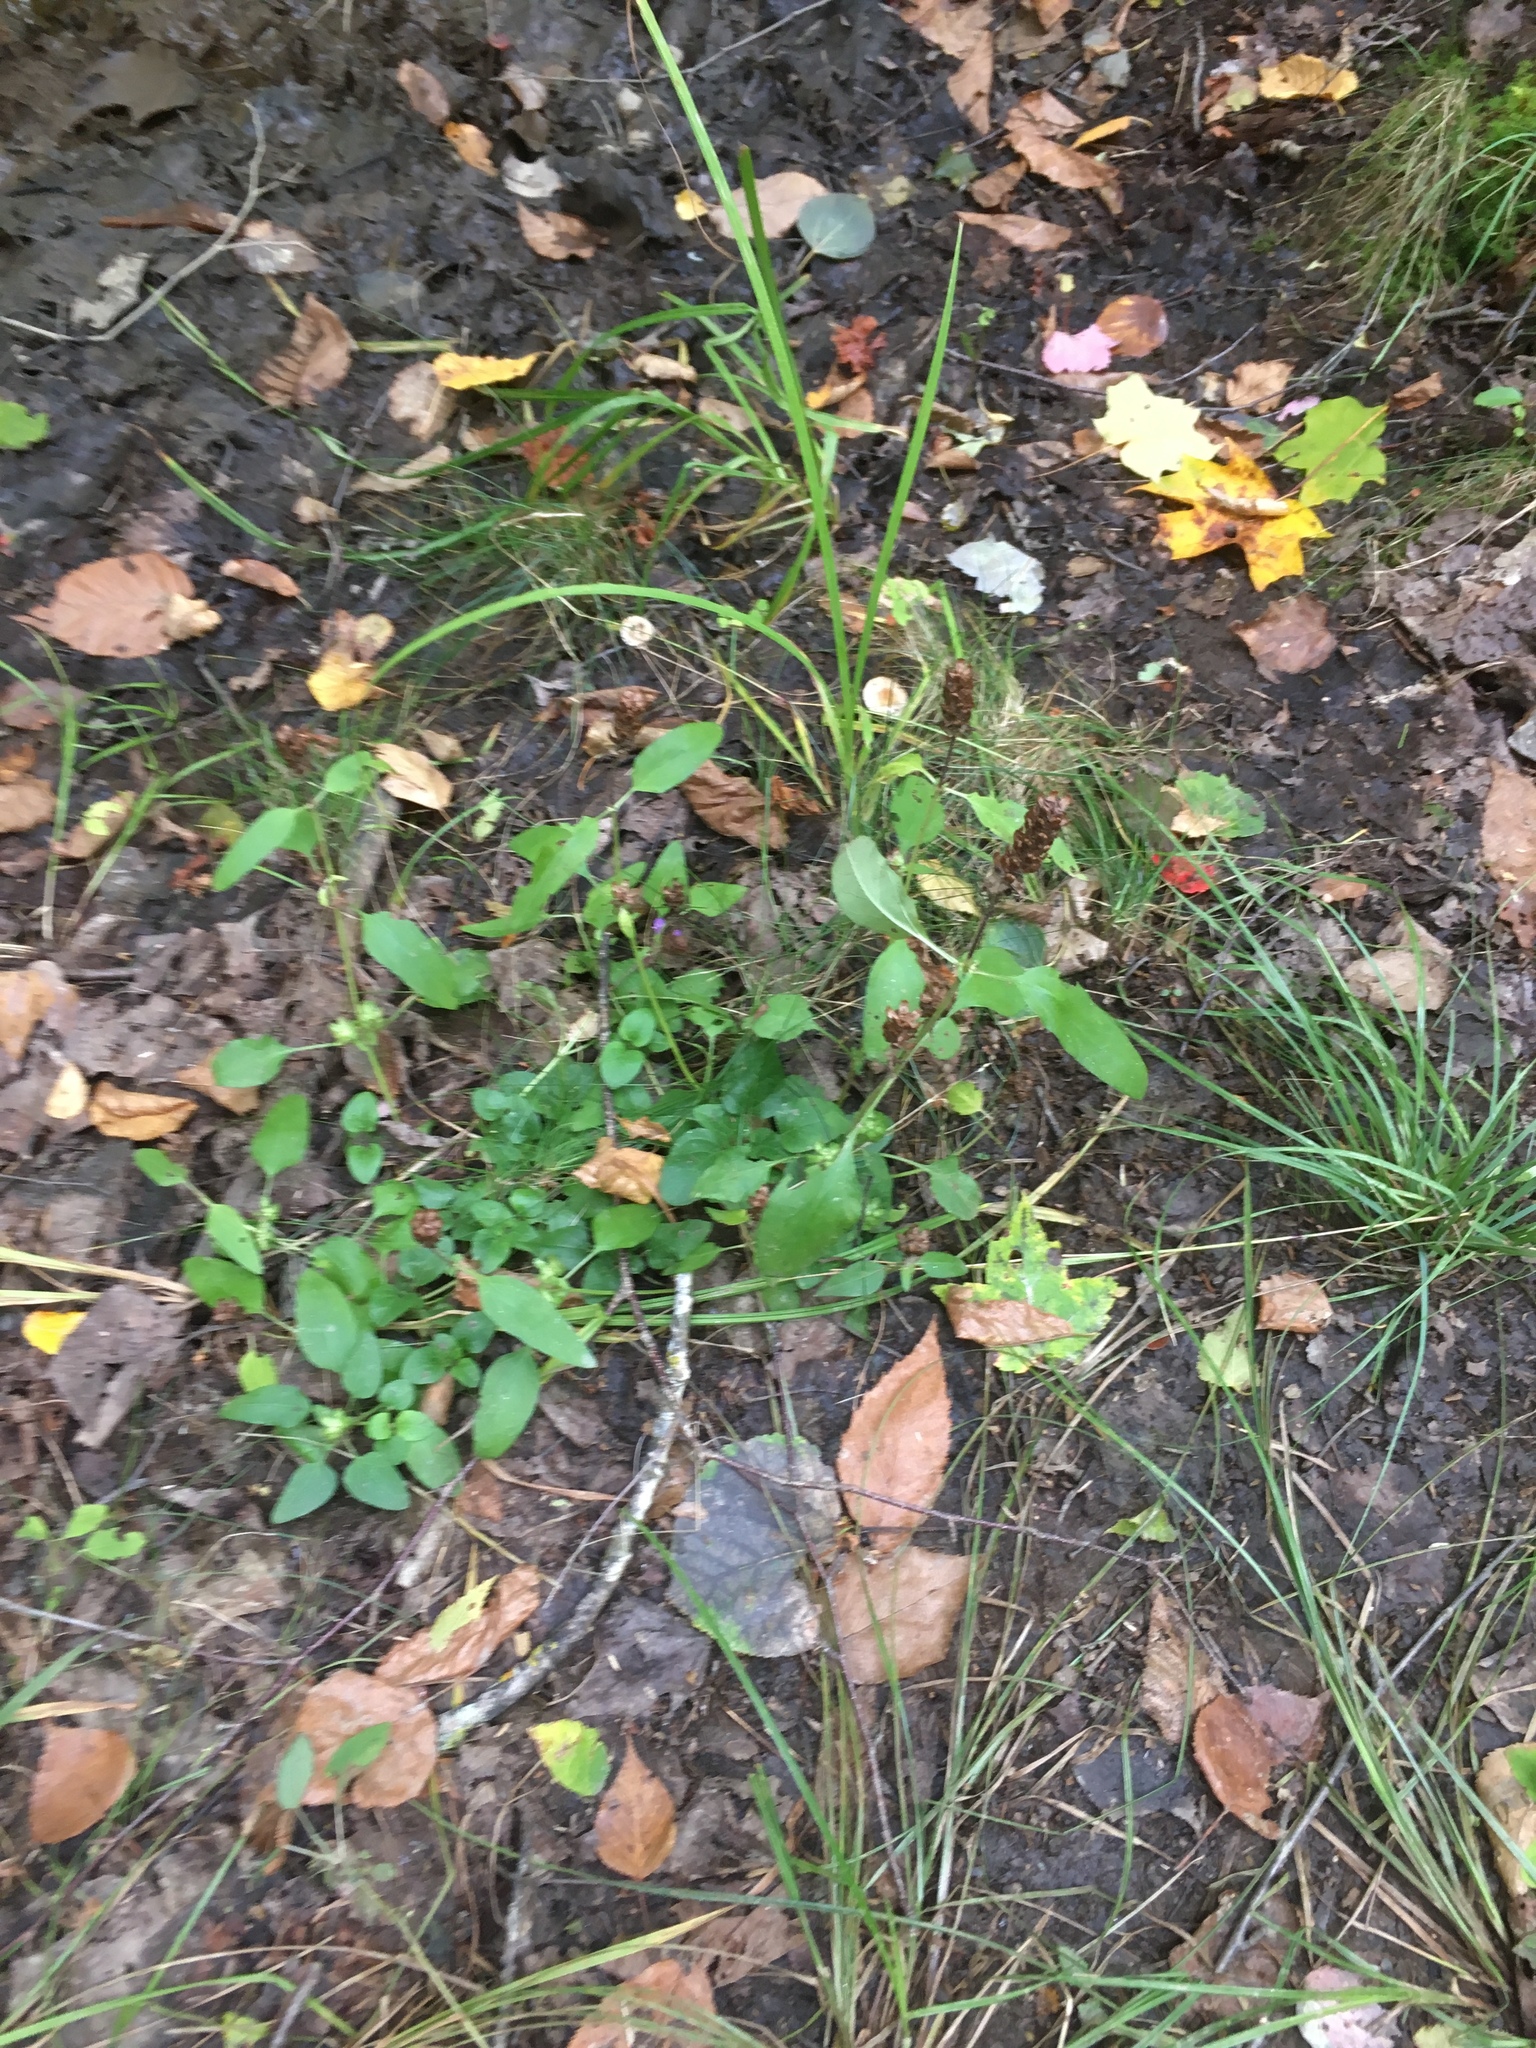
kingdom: Plantae
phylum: Tracheophyta
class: Magnoliopsida
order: Lamiales
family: Lamiaceae
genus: Prunella
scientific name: Prunella vulgaris
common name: Heal-all
